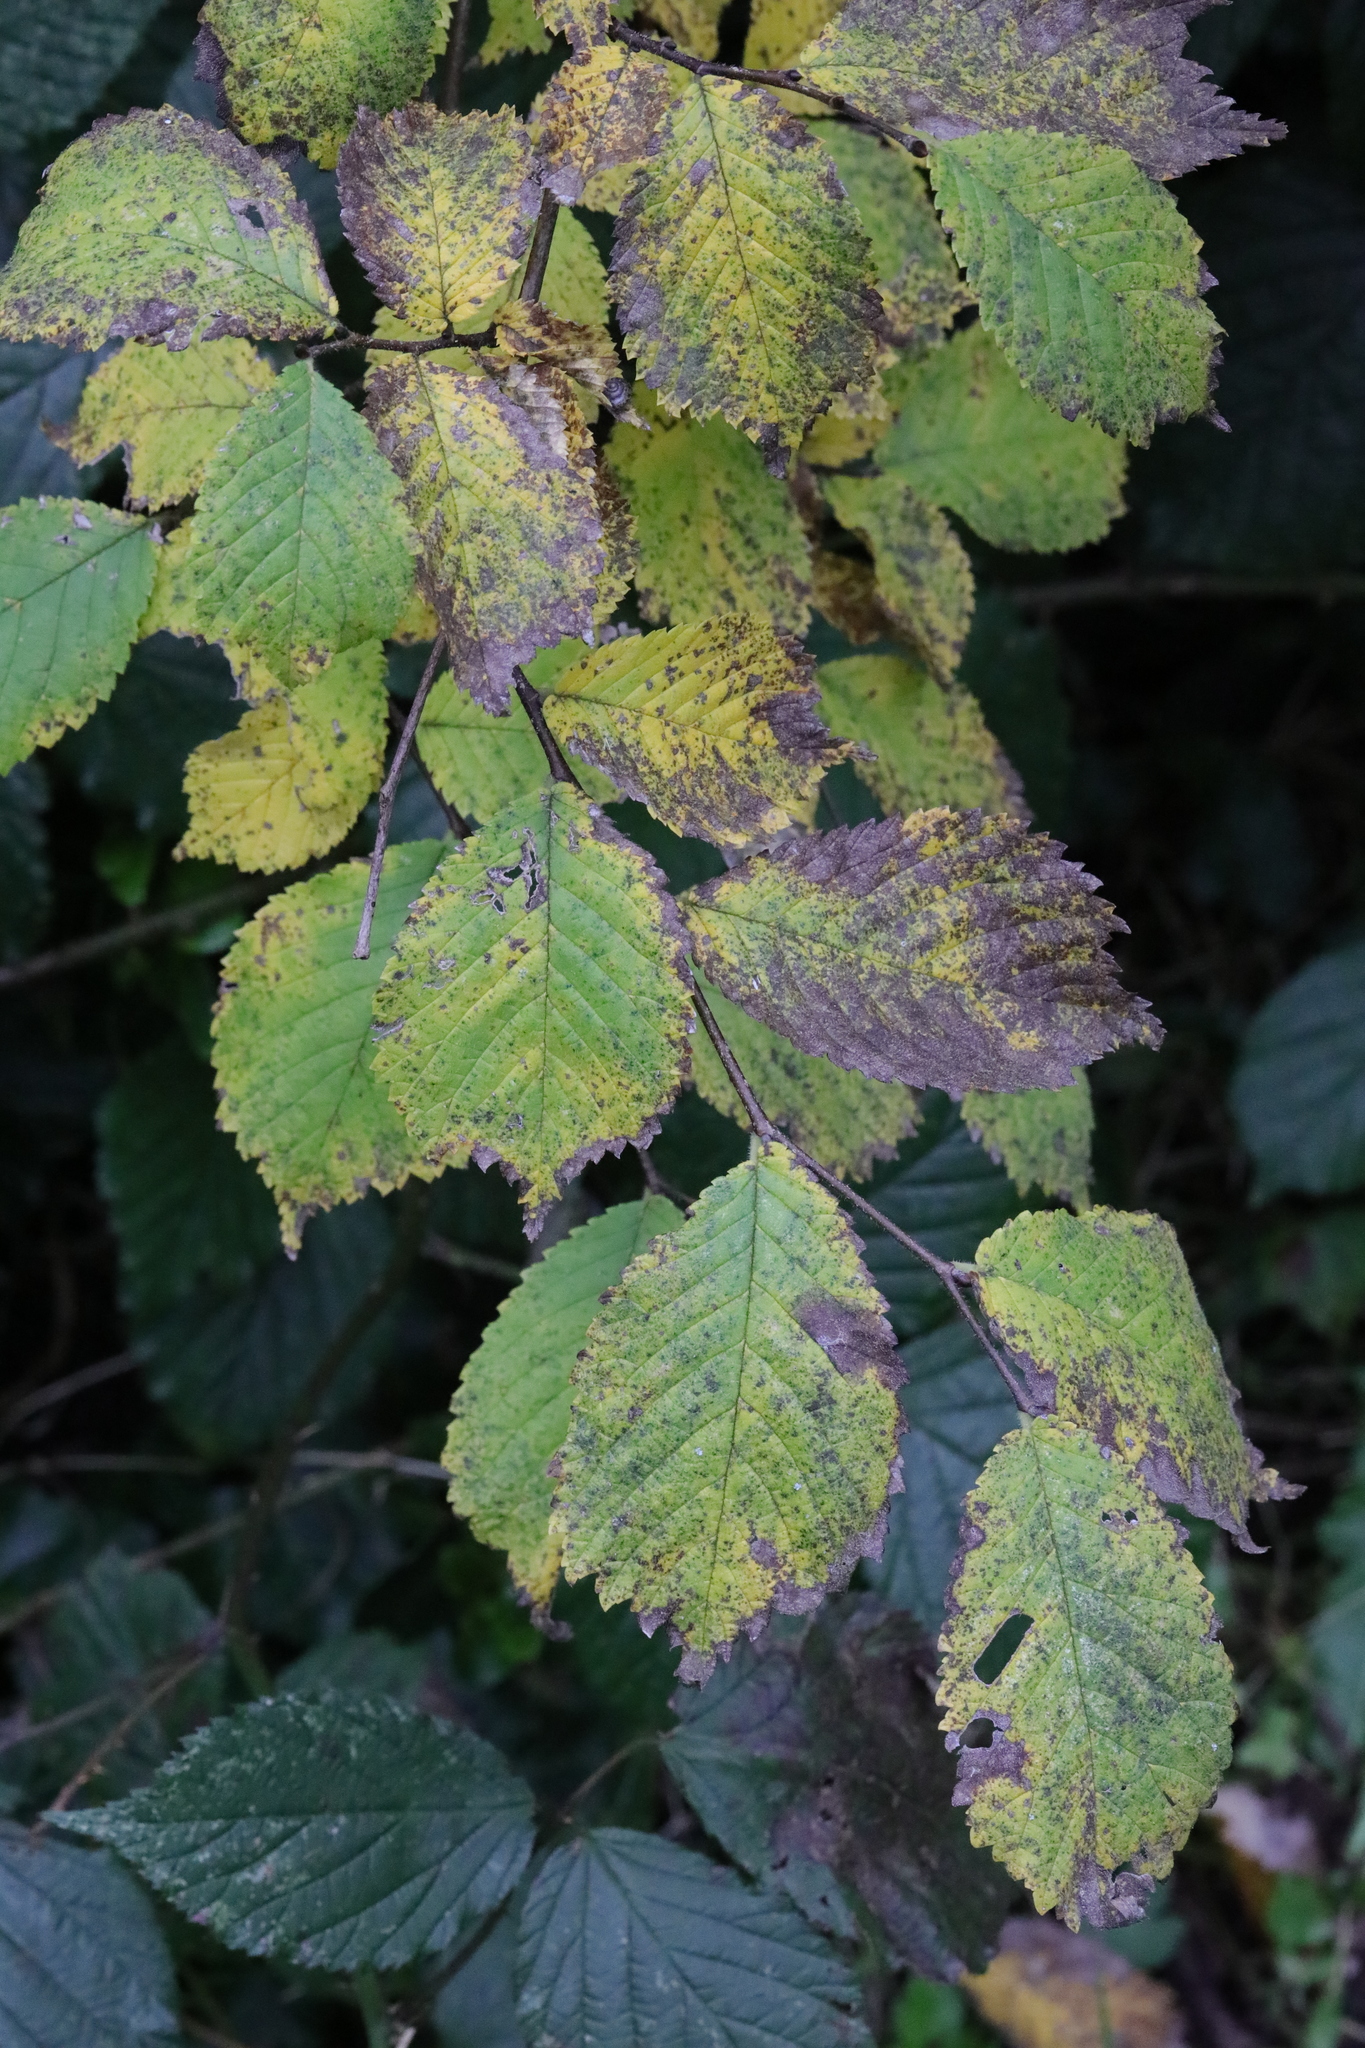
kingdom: Plantae
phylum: Tracheophyta
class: Magnoliopsida
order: Rosales
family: Ulmaceae
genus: Ulmus
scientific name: Ulmus glabra
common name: Wych elm
